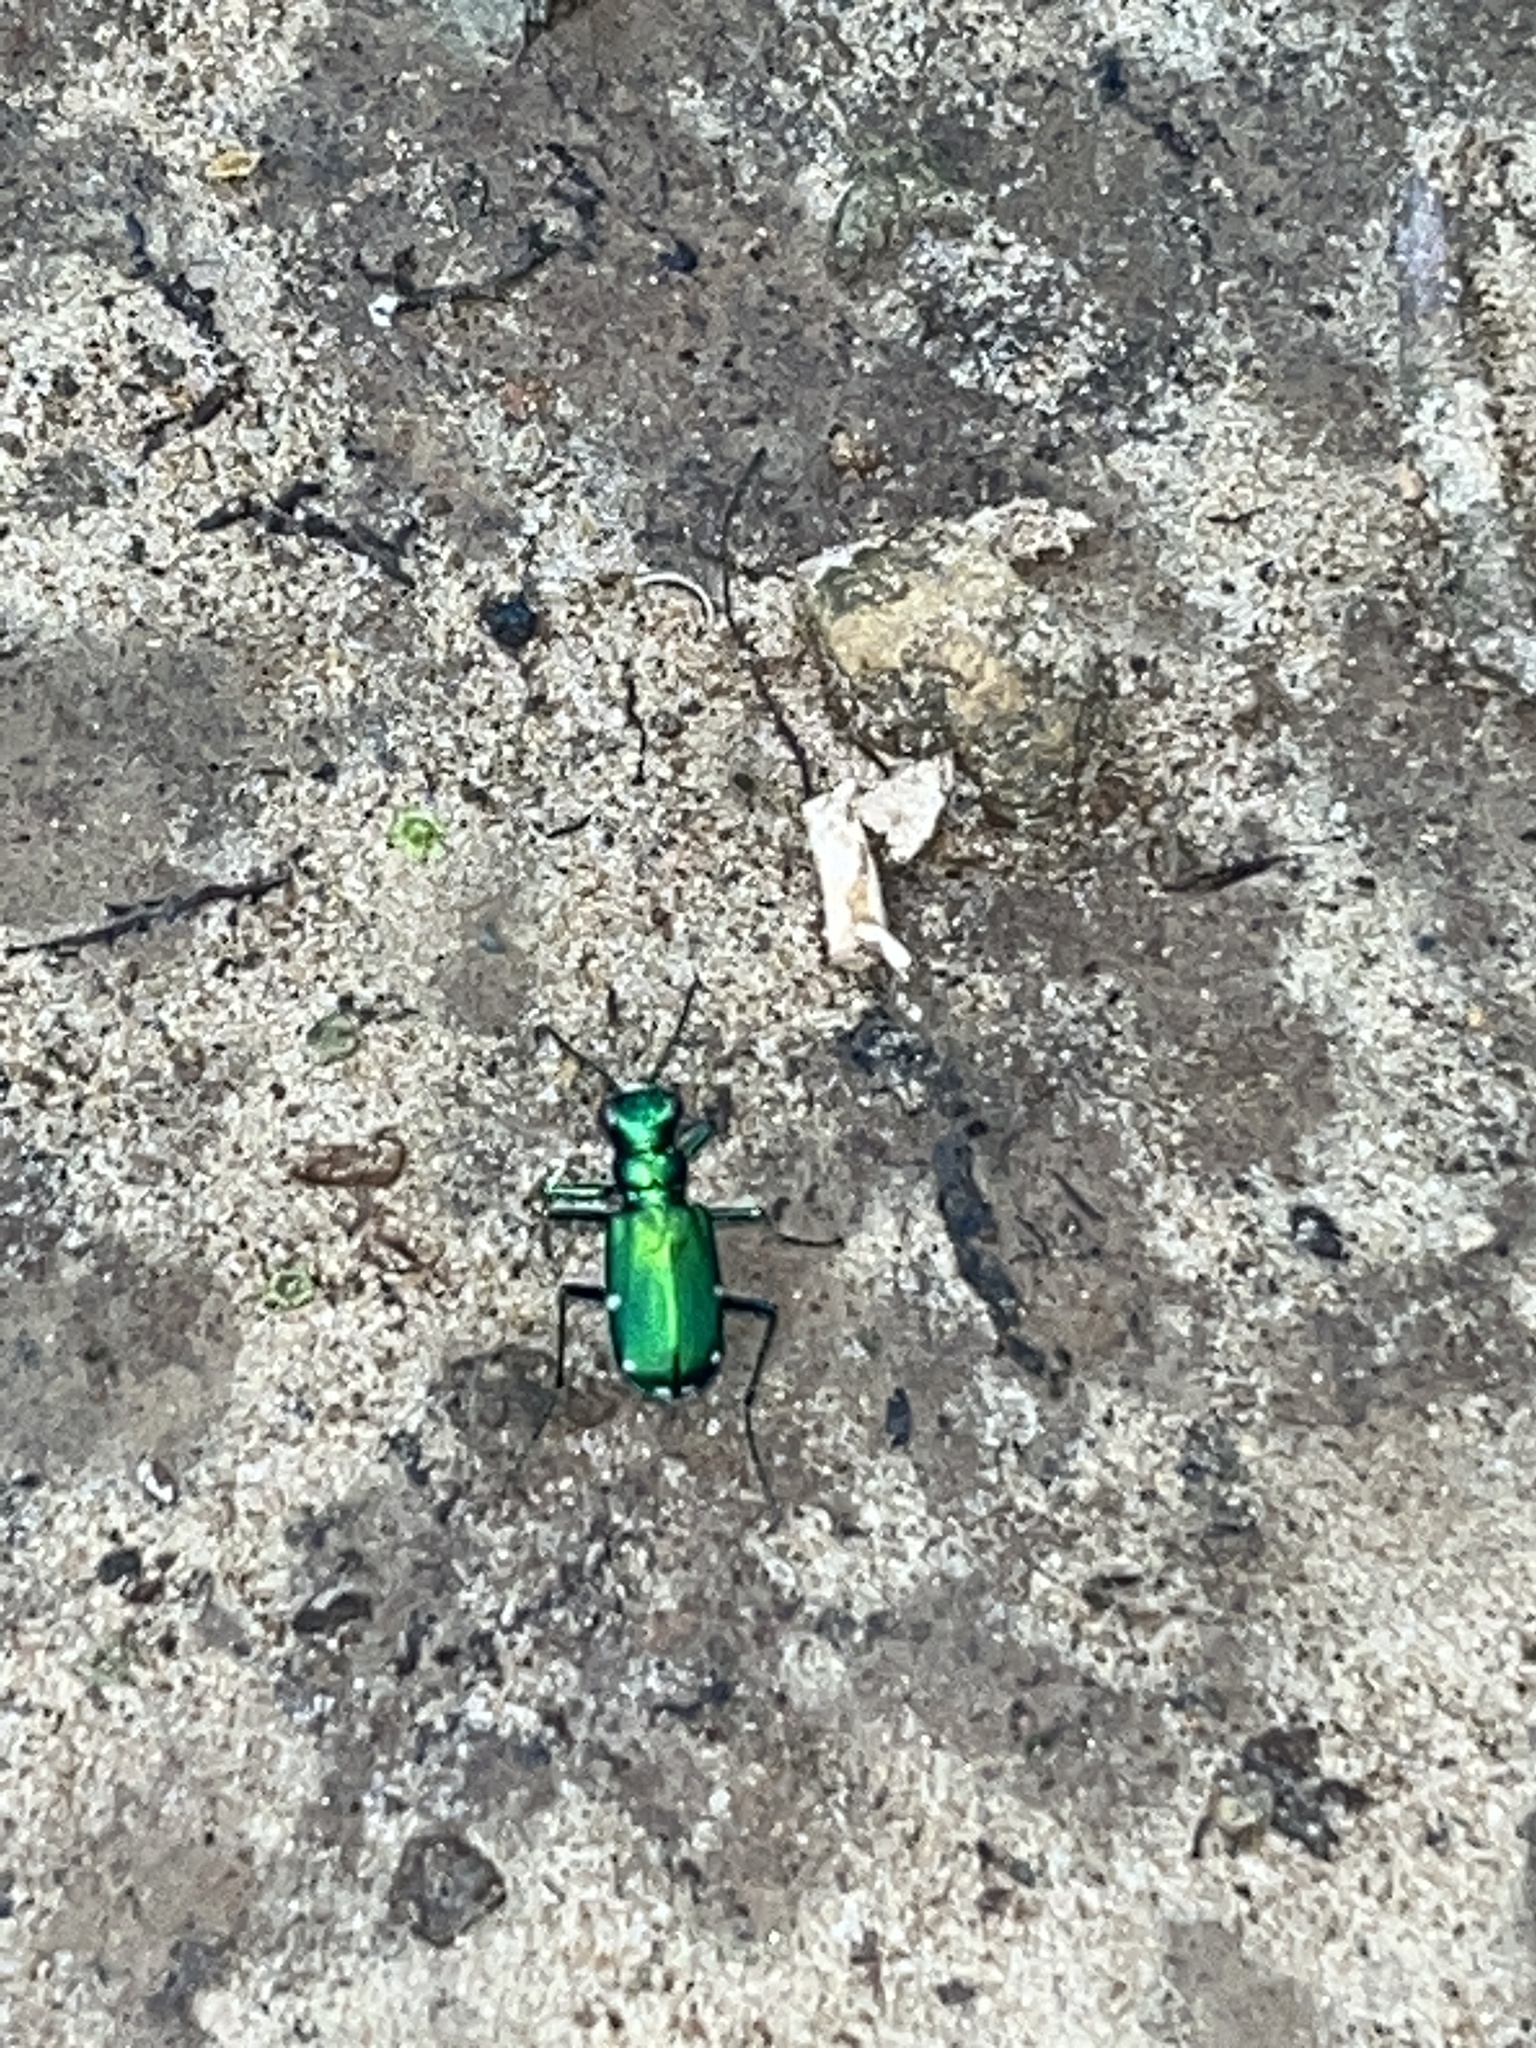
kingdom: Animalia
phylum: Arthropoda
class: Insecta
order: Coleoptera
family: Carabidae
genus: Cicindela
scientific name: Cicindela sexguttata
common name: Six-spotted tiger beetle
